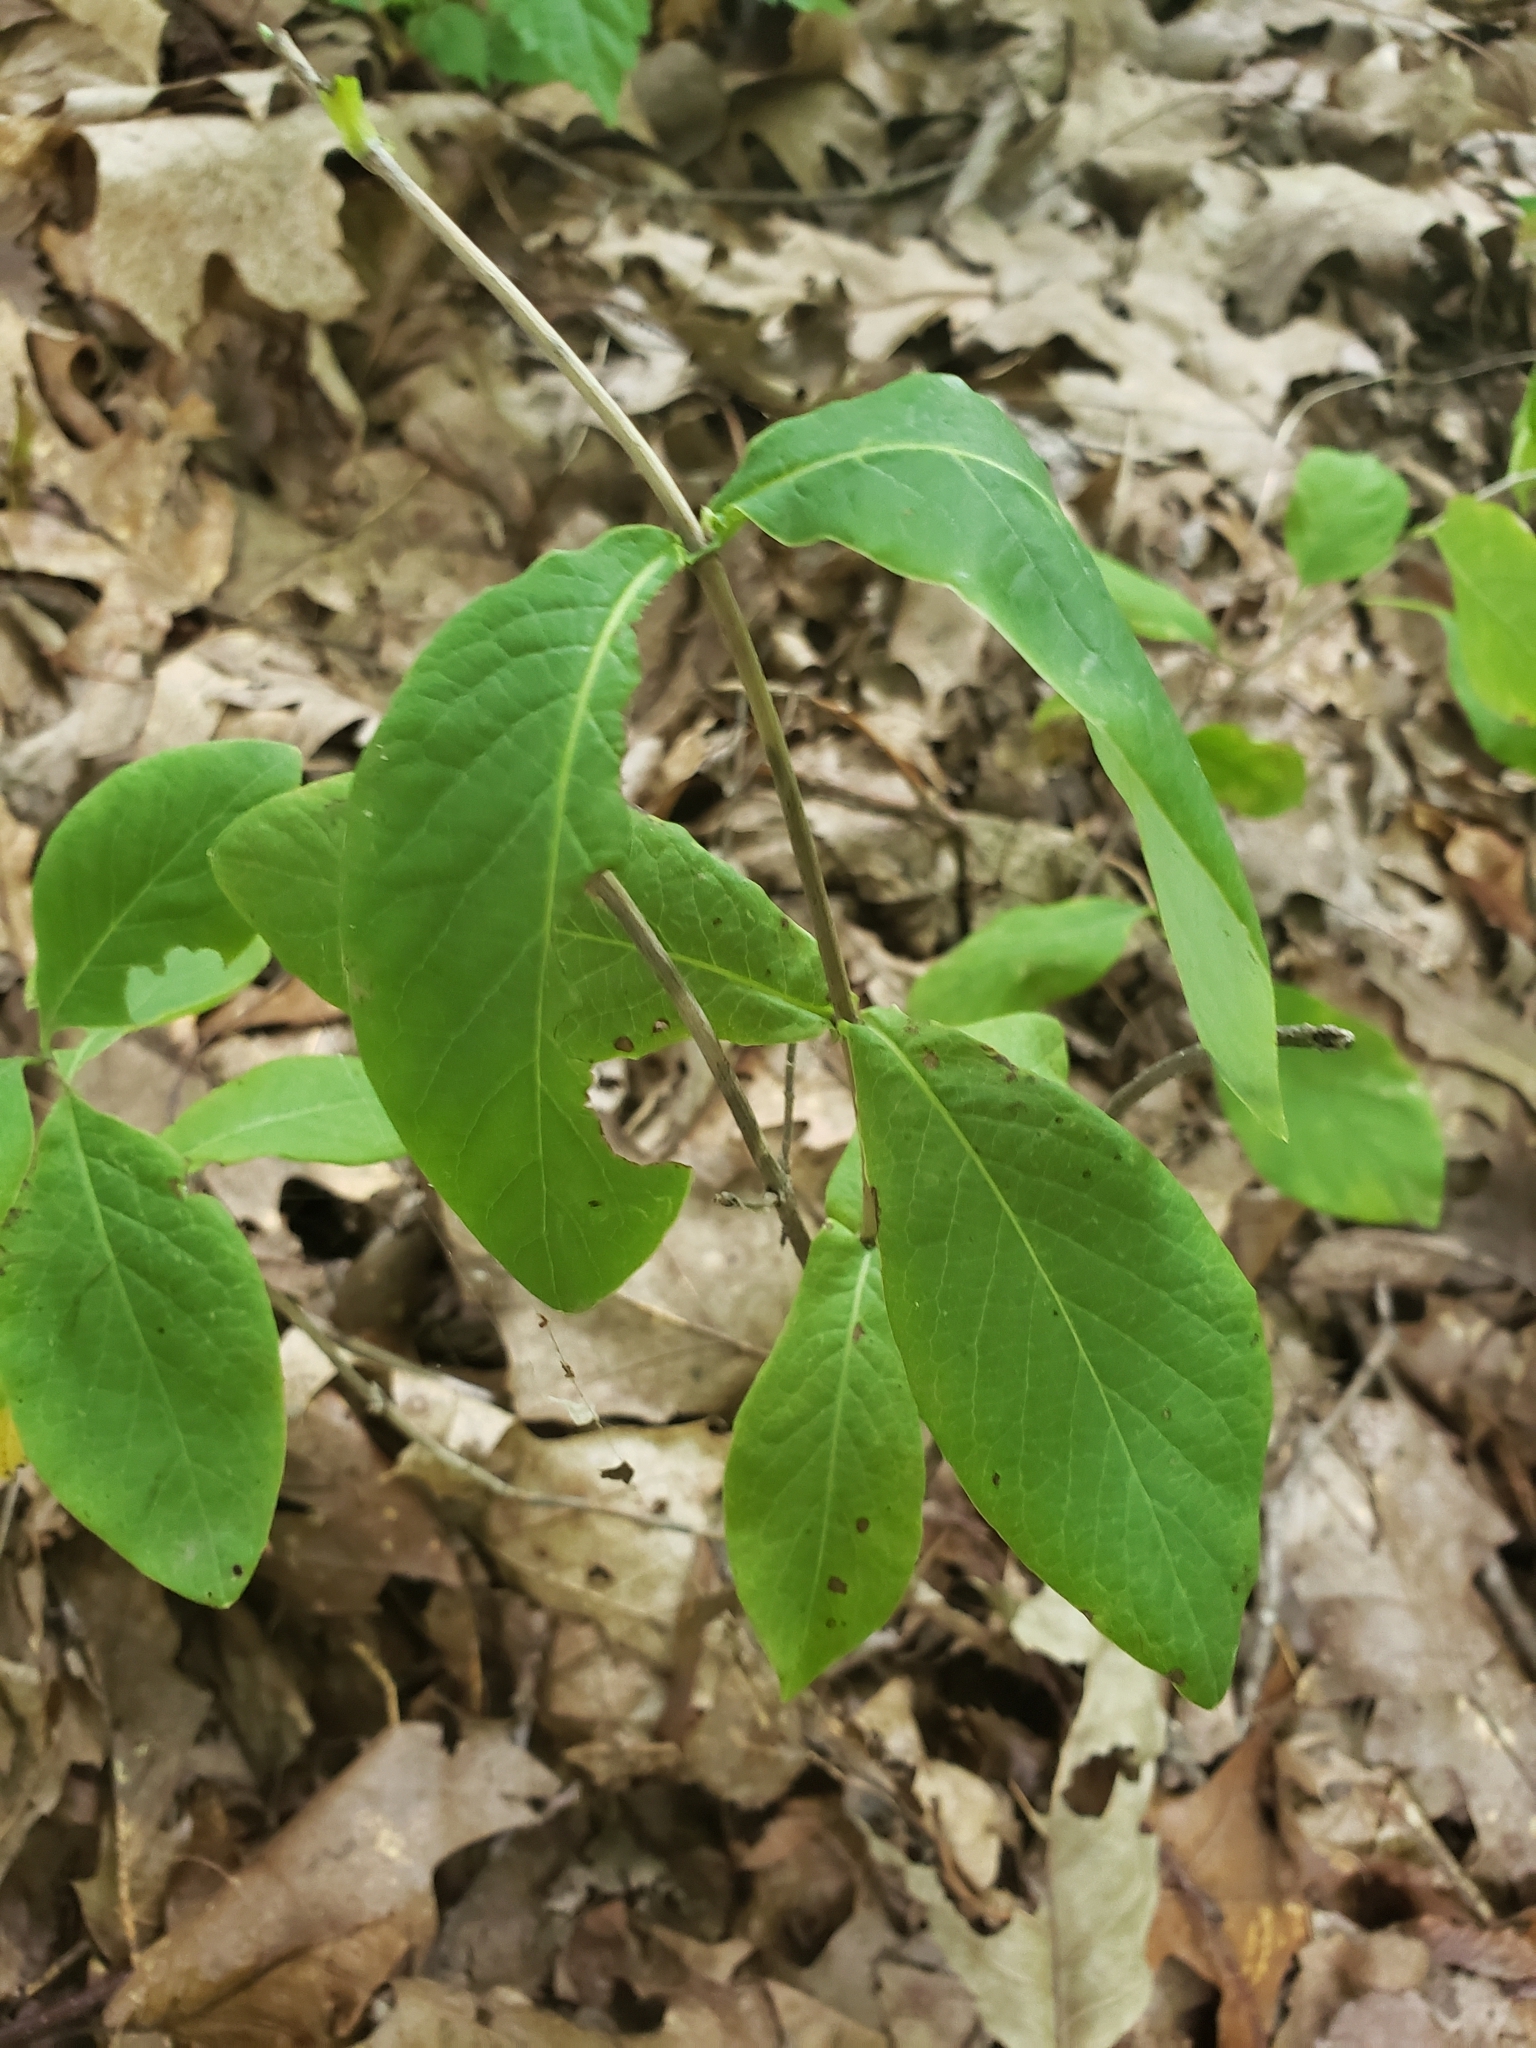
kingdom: Plantae
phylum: Tracheophyta
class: Magnoliopsida
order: Dipsacales
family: Caprifoliaceae
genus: Lonicera
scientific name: Lonicera dioica
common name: Limber honeysuckle
